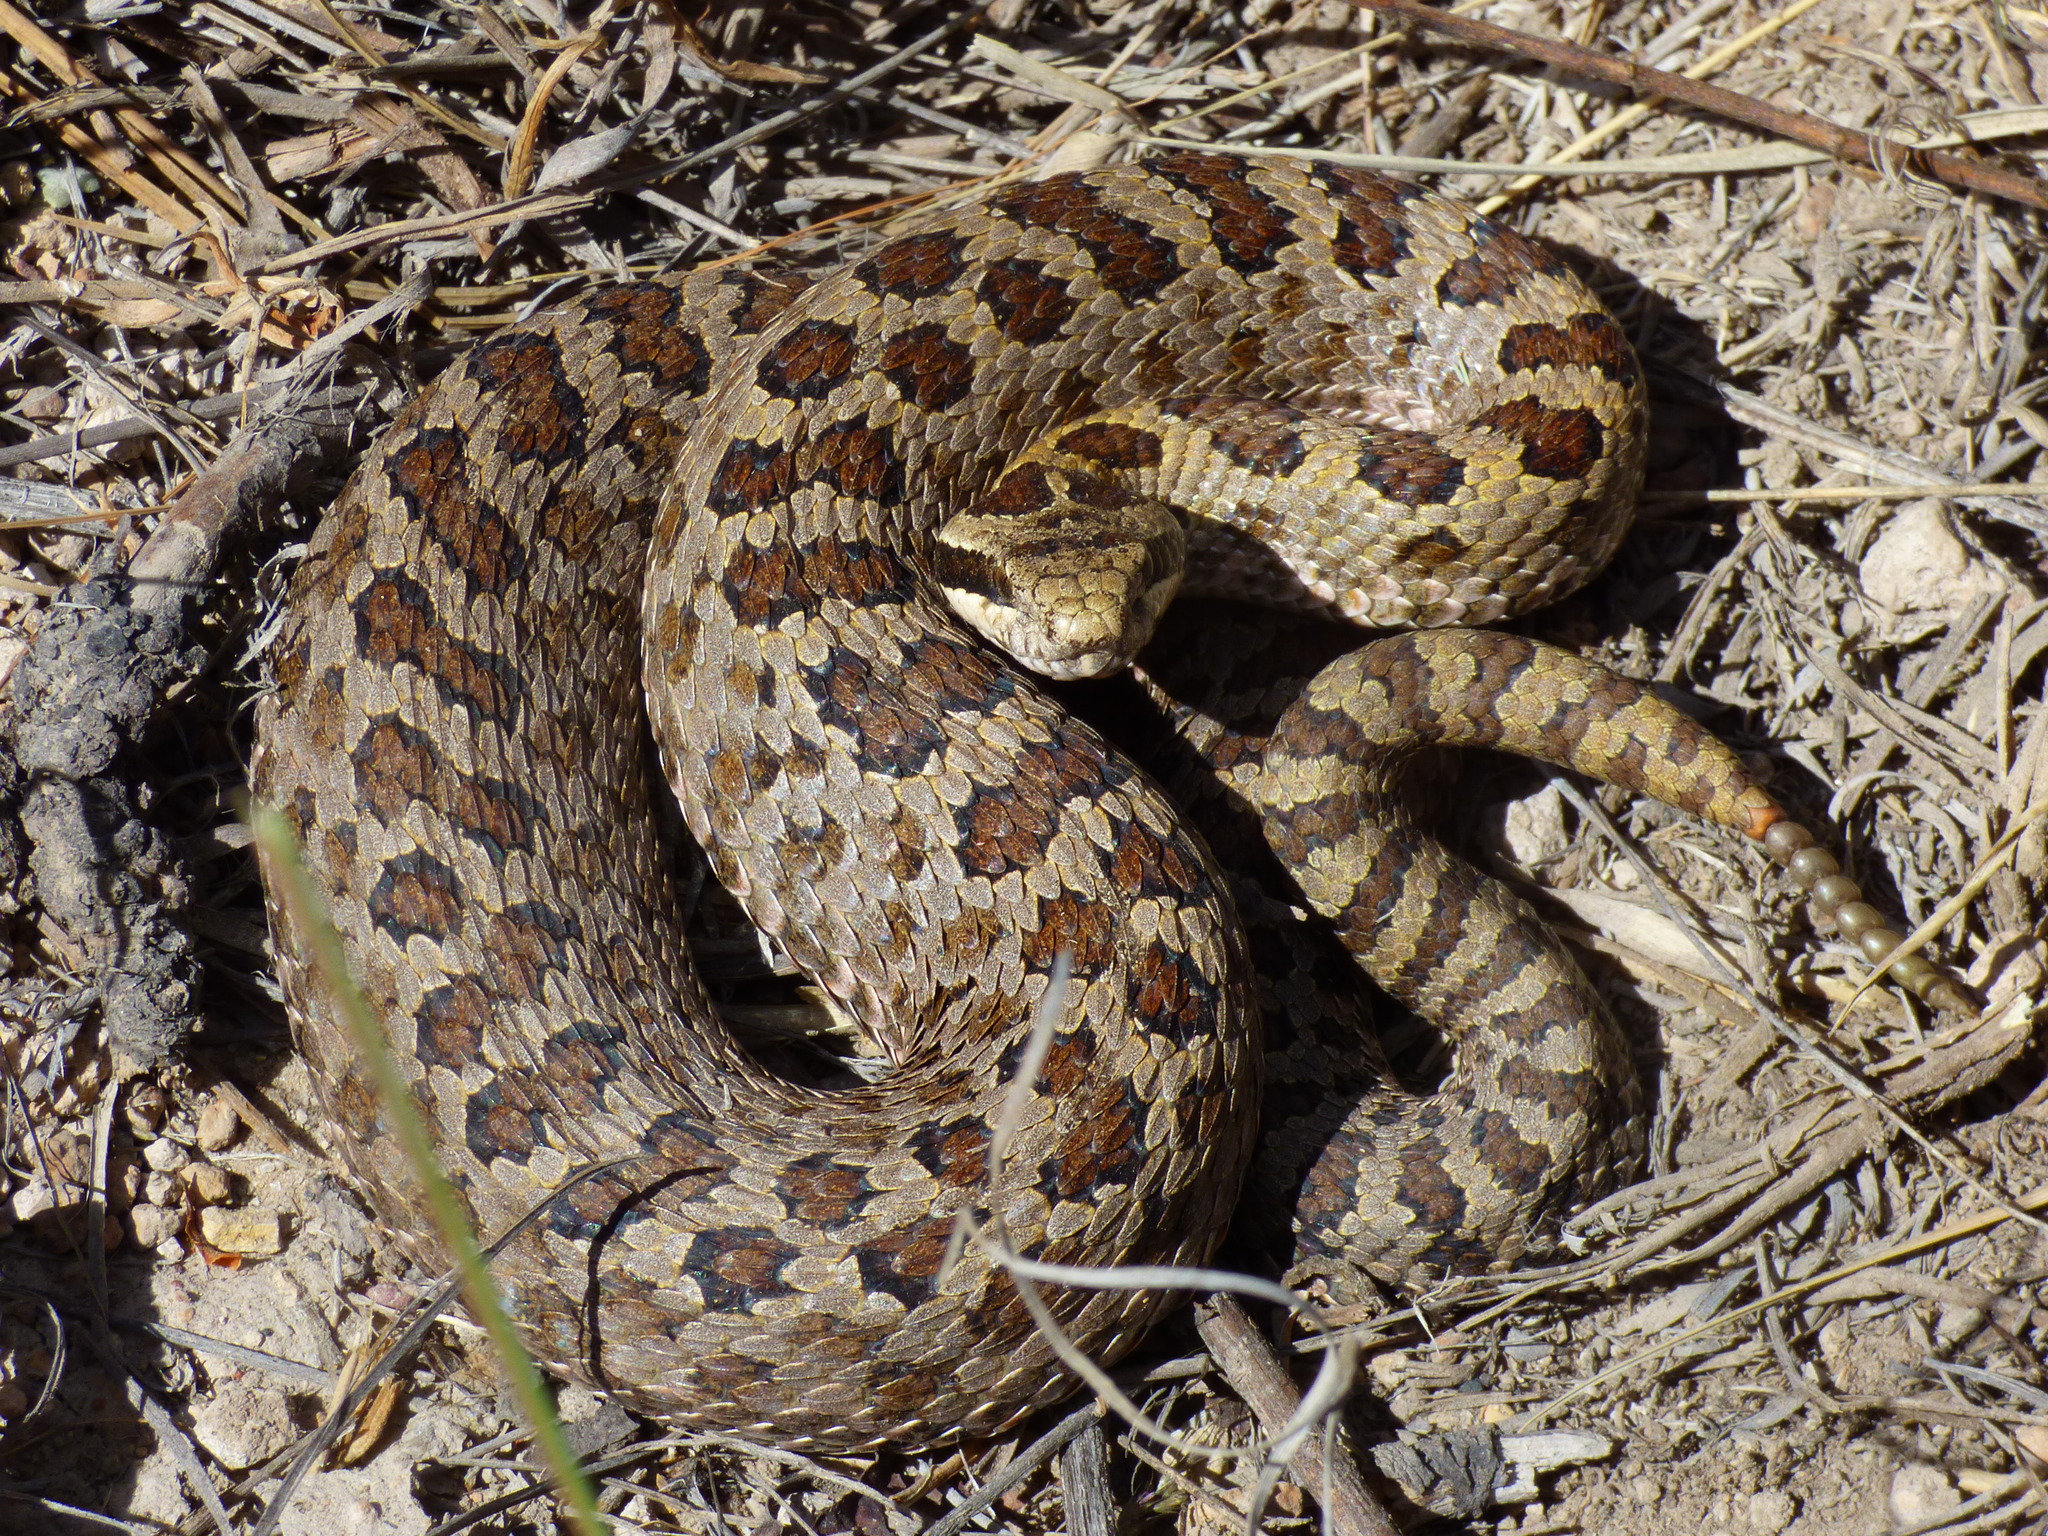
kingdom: Animalia
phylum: Chordata
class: Squamata
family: Viperidae
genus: Crotalus
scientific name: Crotalus pricei
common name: Twin-spotted rattlesnake
